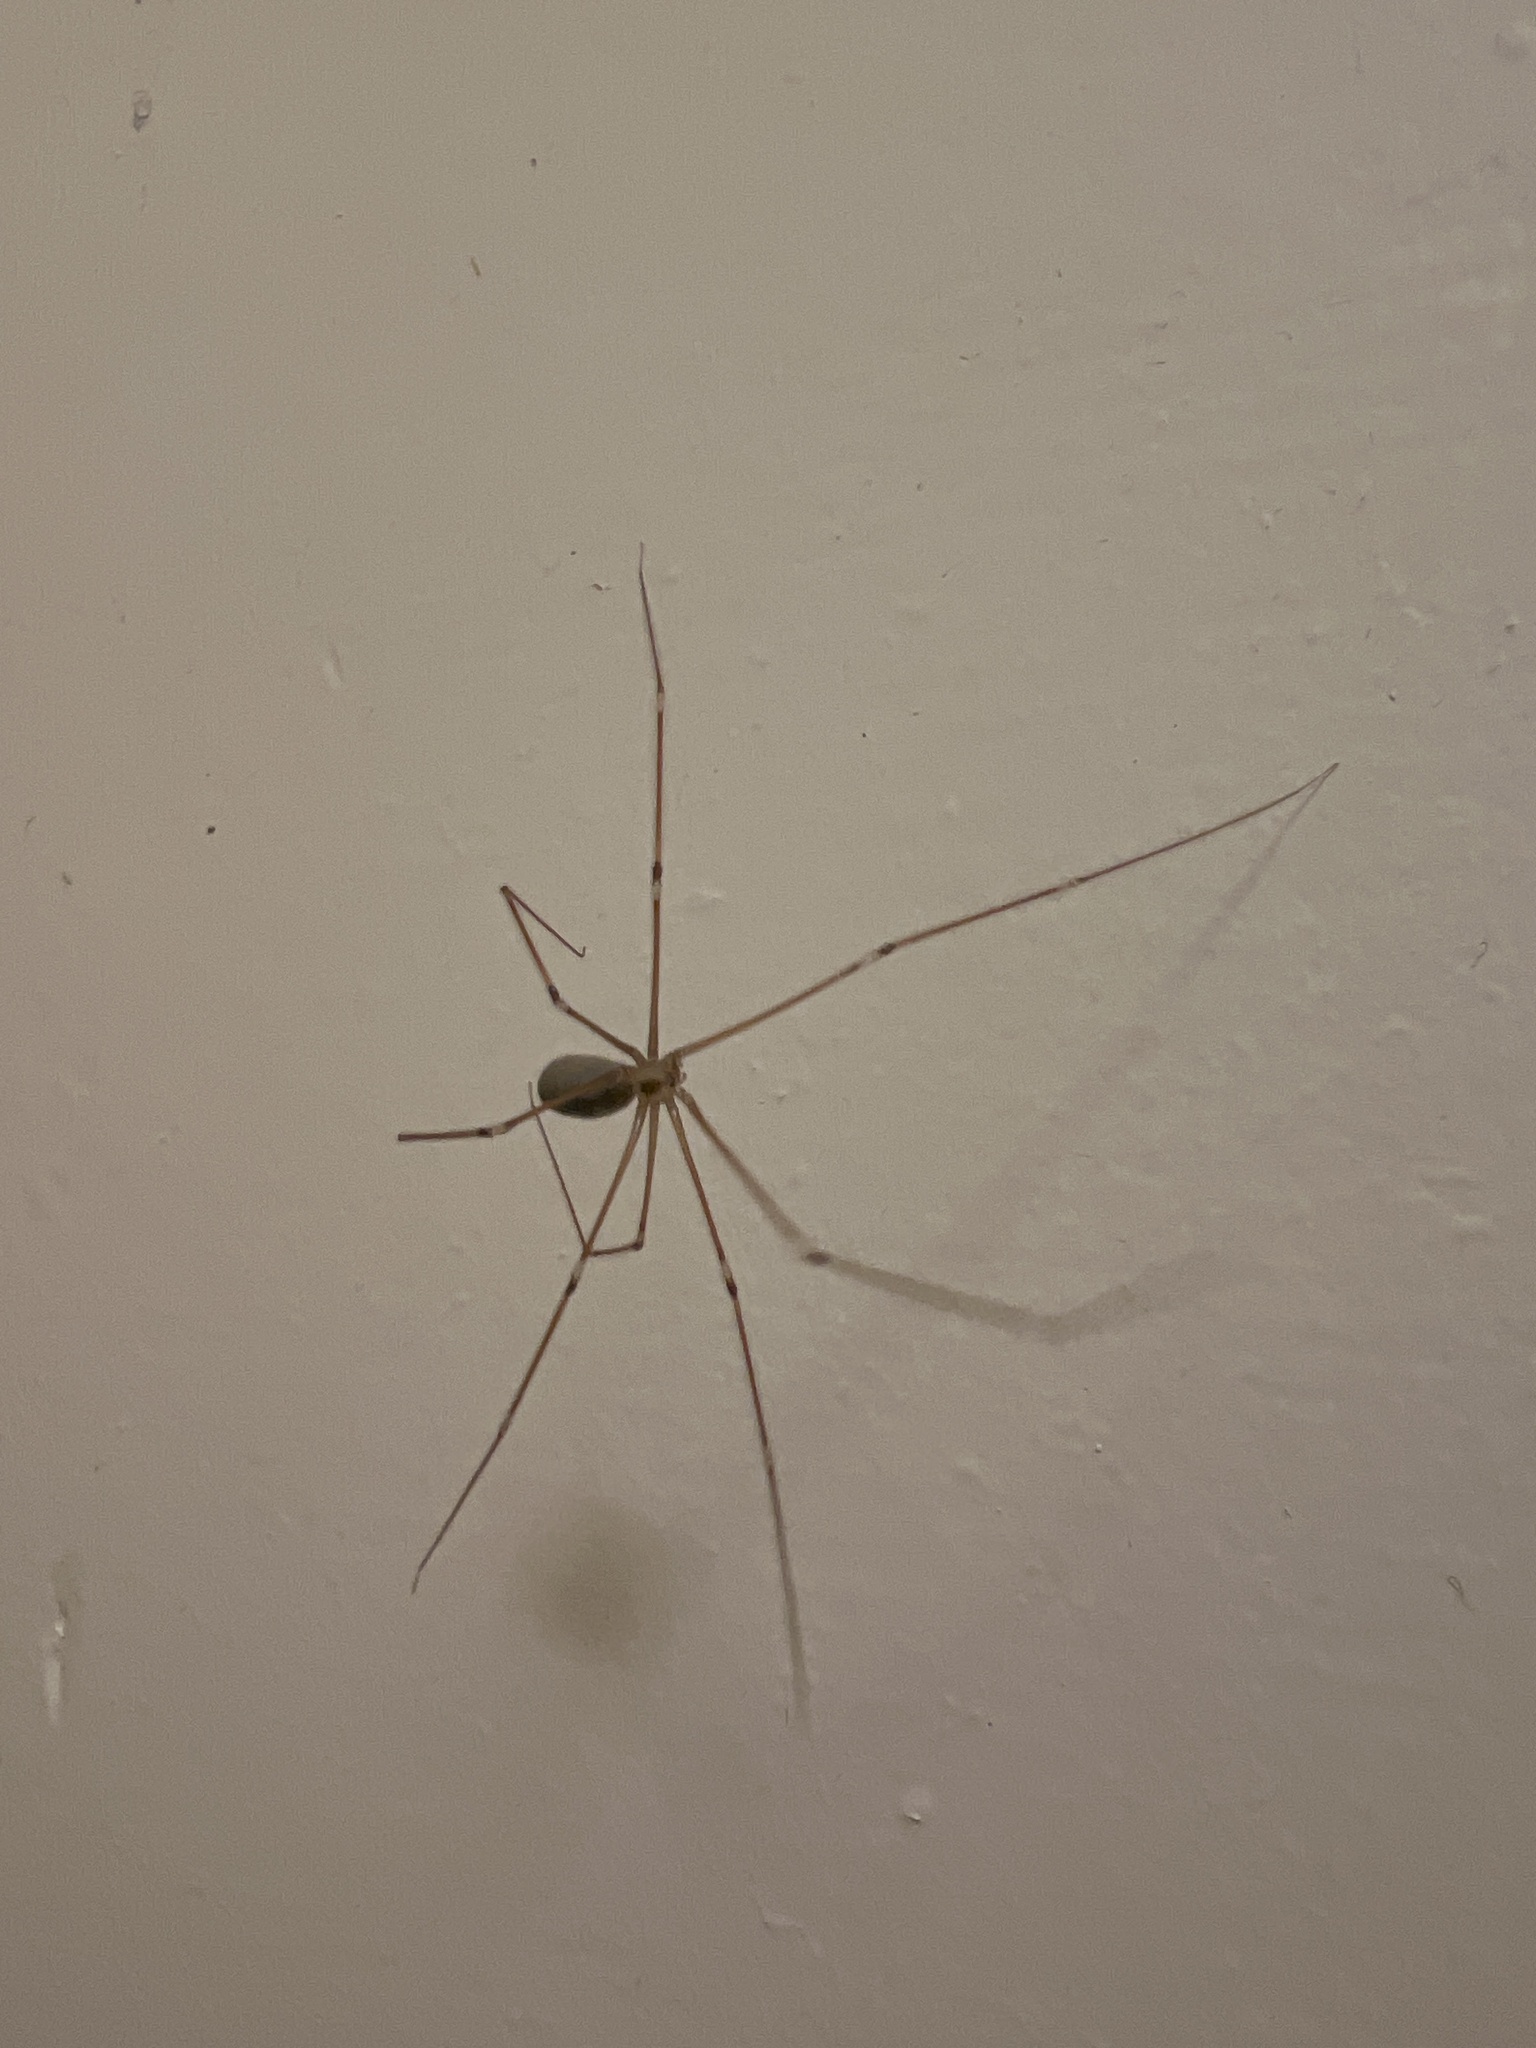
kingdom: Animalia
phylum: Arthropoda
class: Arachnida
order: Araneae
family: Pholcidae
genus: Pholcus
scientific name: Pholcus phalangioides
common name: Longbodied cellar spider
